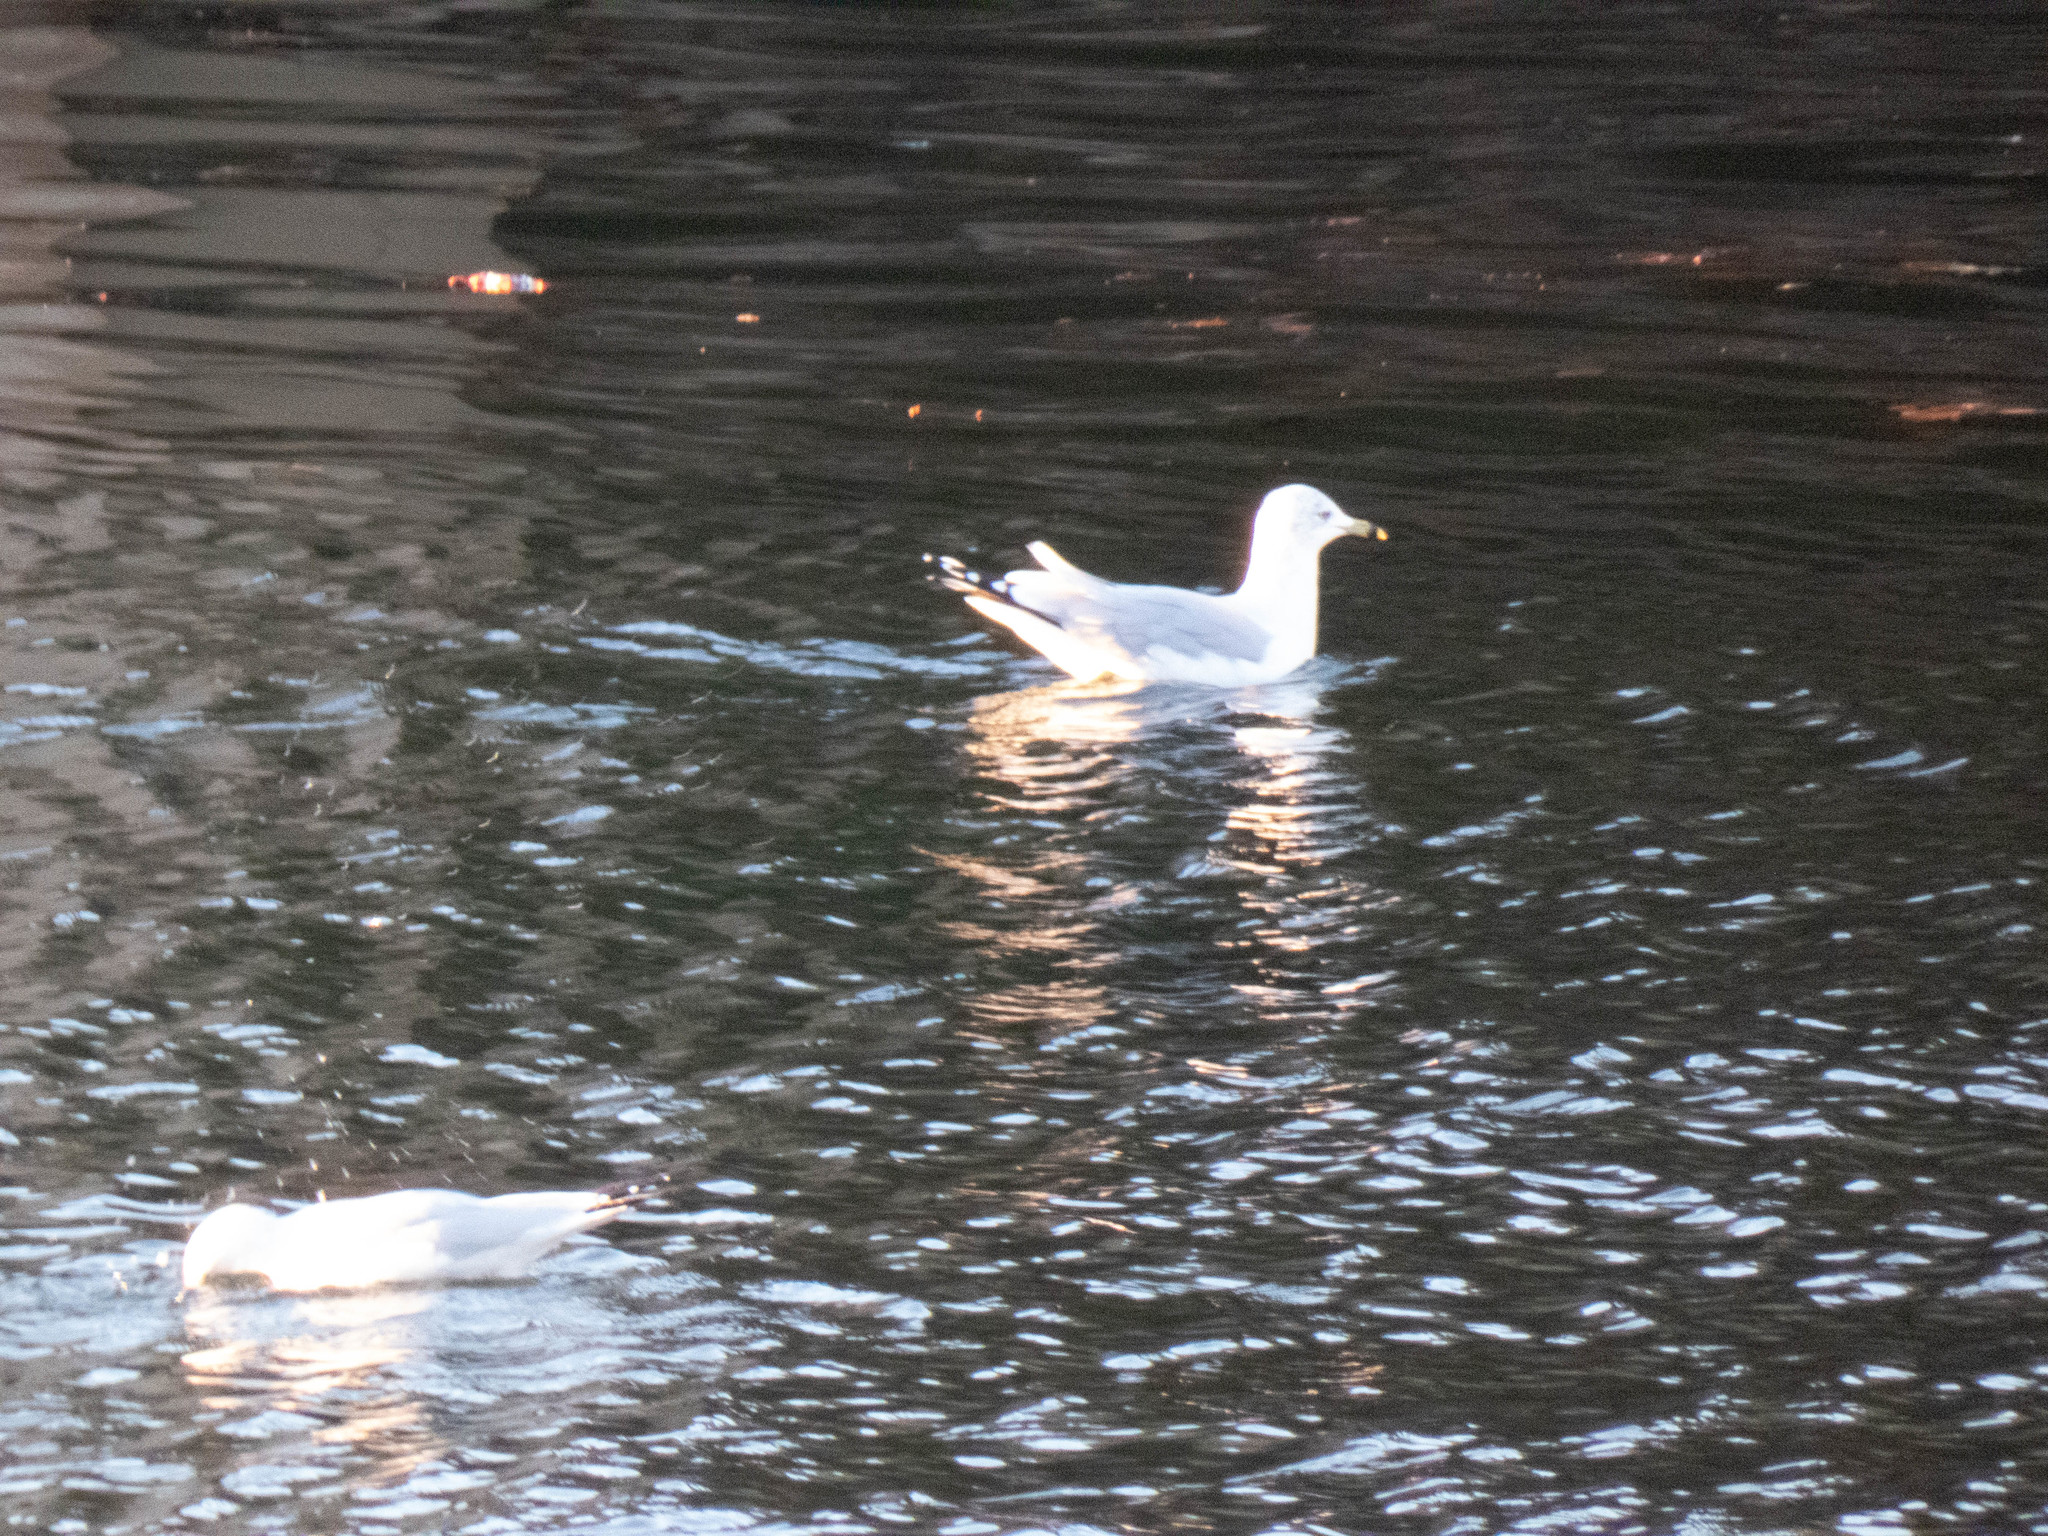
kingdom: Animalia
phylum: Chordata
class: Aves
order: Charadriiformes
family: Laridae
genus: Larus
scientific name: Larus delawarensis
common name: Ring-billed gull
